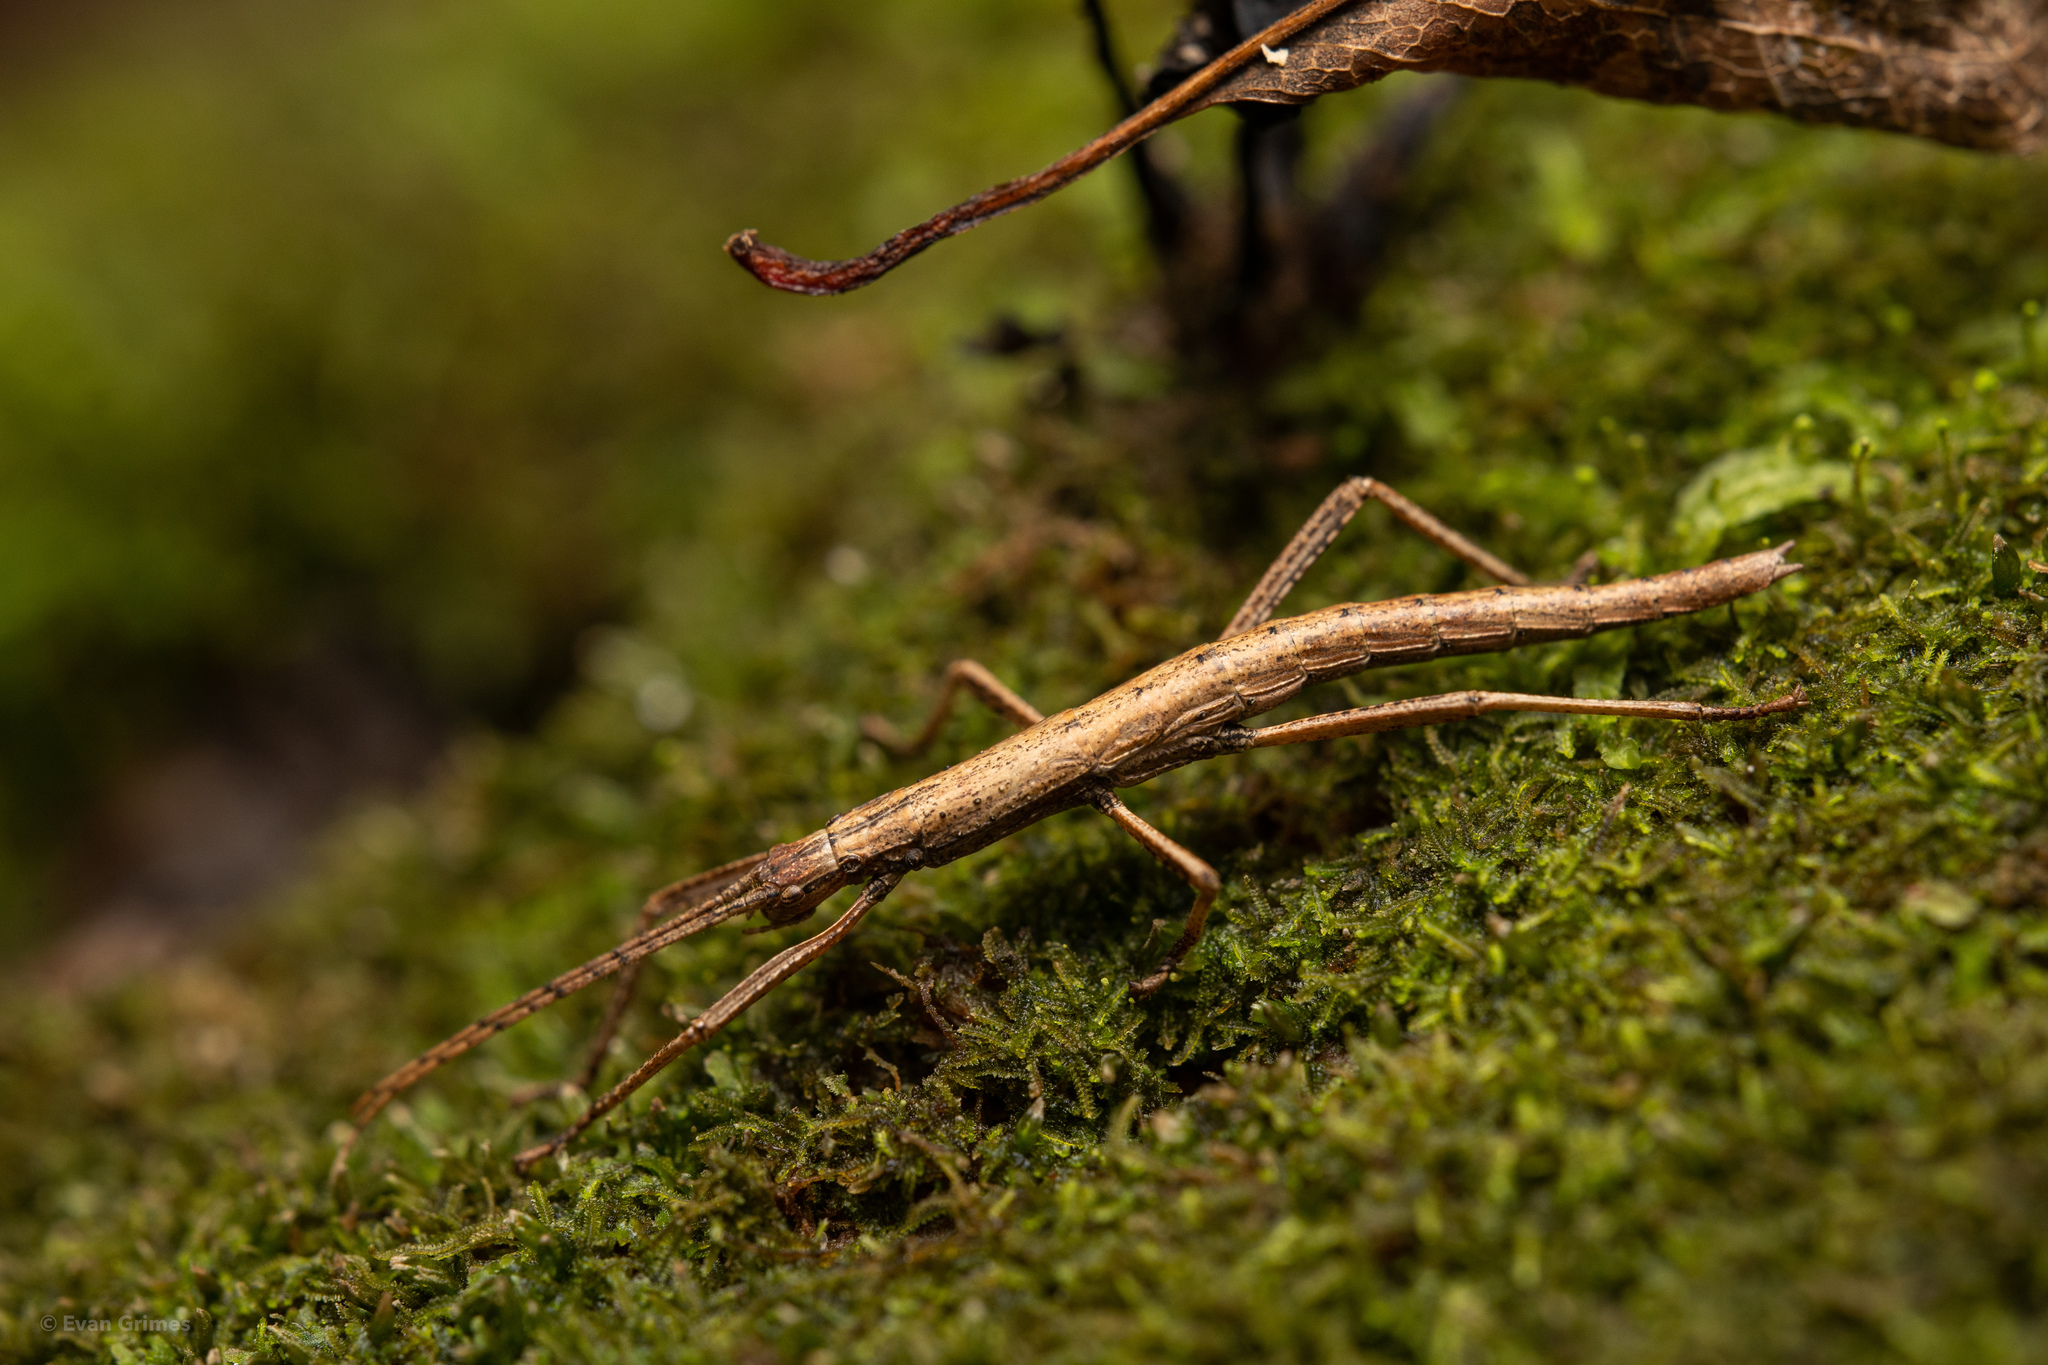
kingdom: Animalia
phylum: Arthropoda
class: Insecta
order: Phasmida
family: Pseudophasmatidae
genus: Anisomorpha
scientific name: Anisomorpha buprestoides
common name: Florida stick insect
